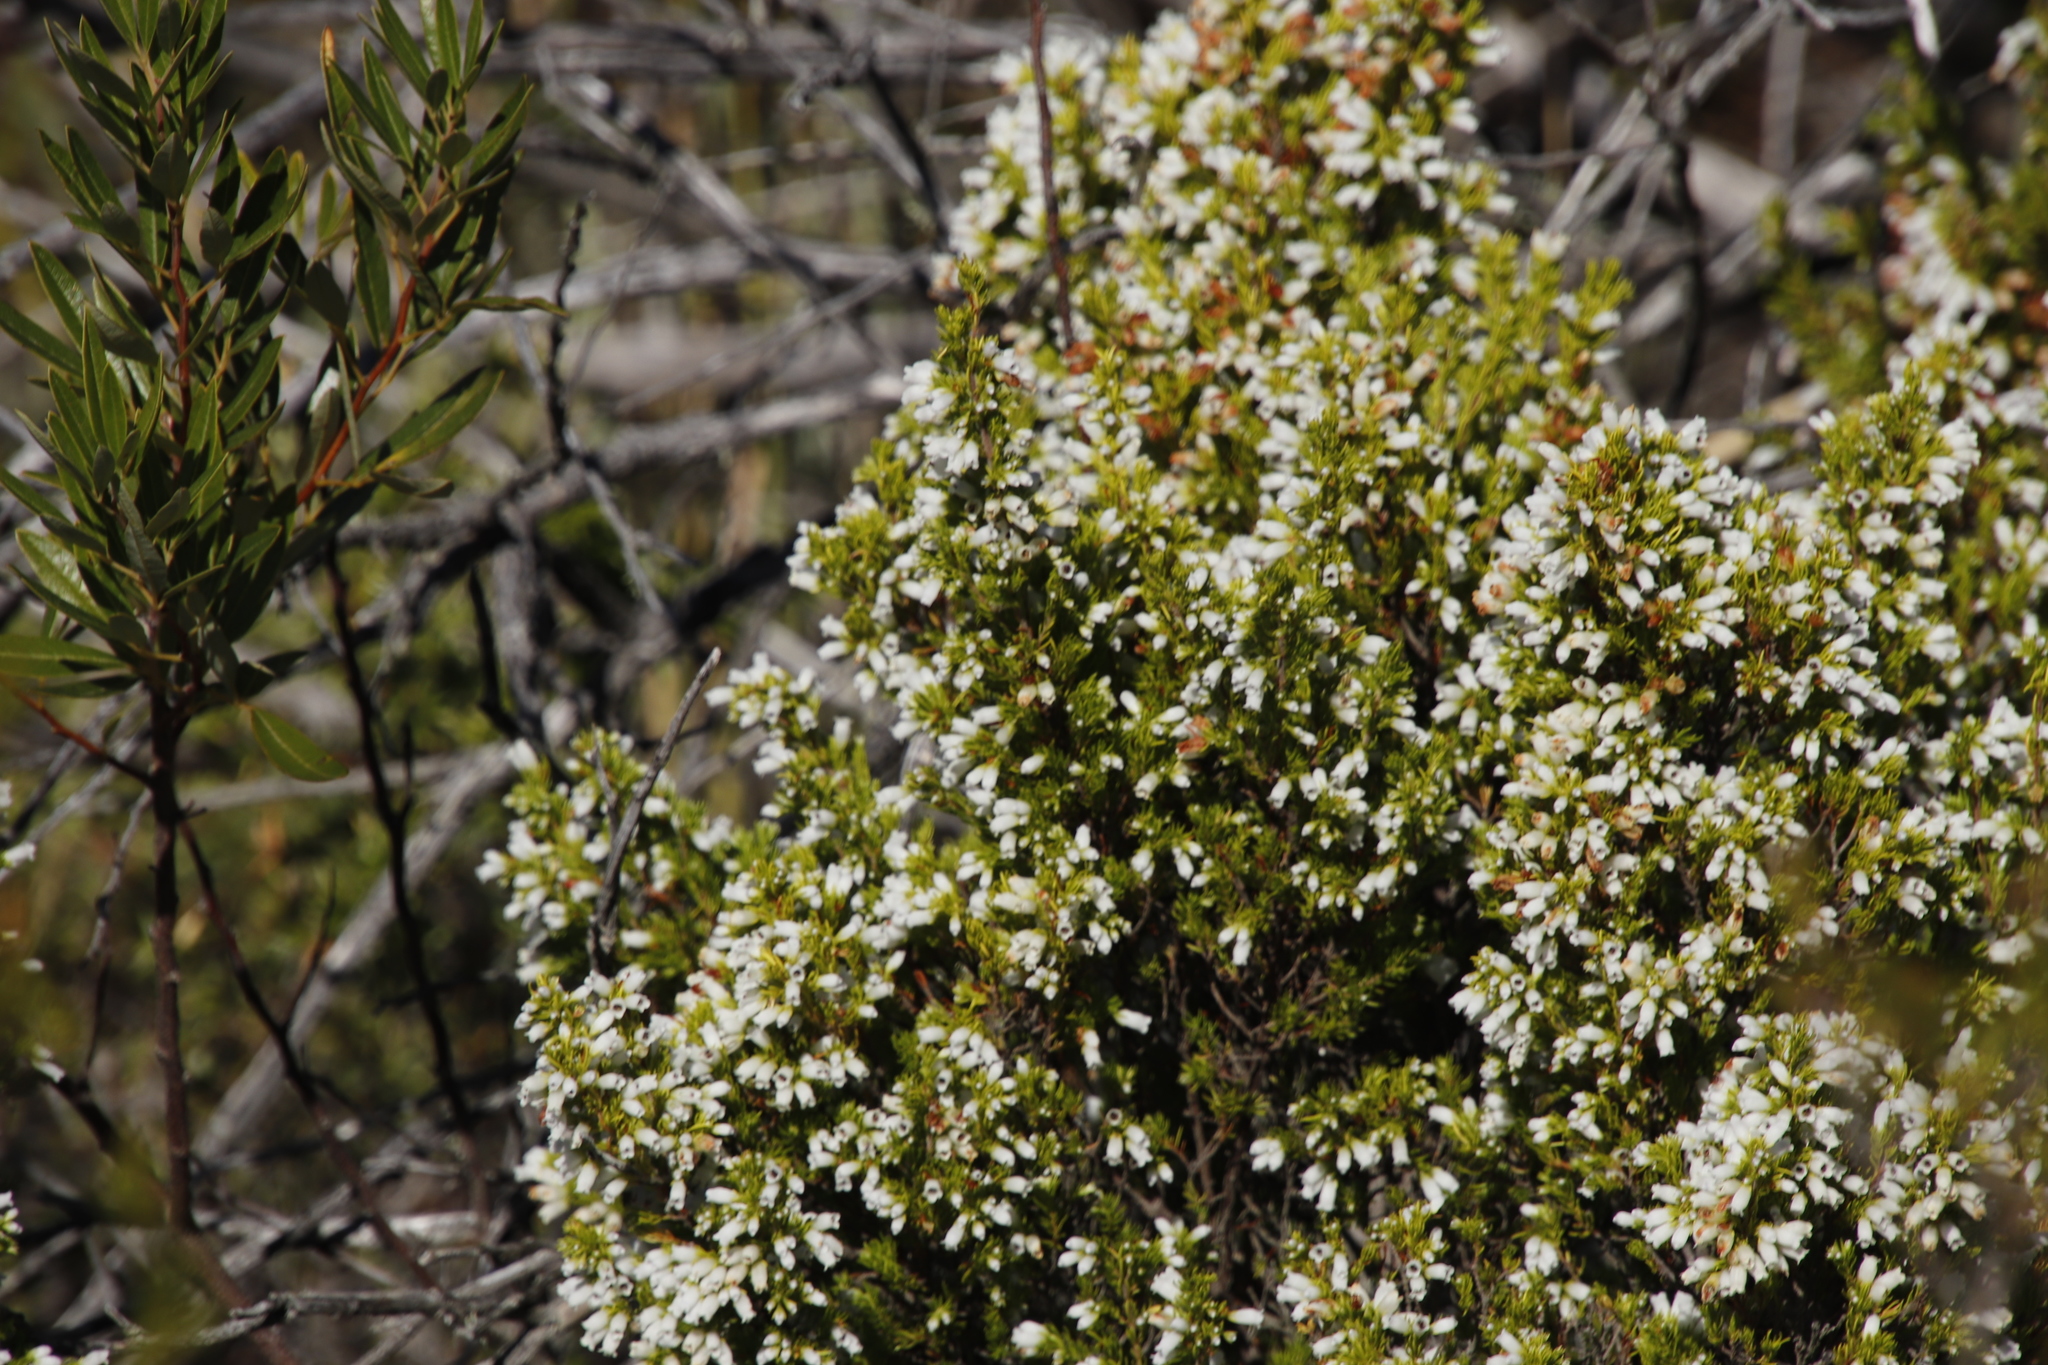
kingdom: Plantae
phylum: Tracheophyta
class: Magnoliopsida
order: Ericales
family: Ericaceae
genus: Erica
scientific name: Erica sitiens
